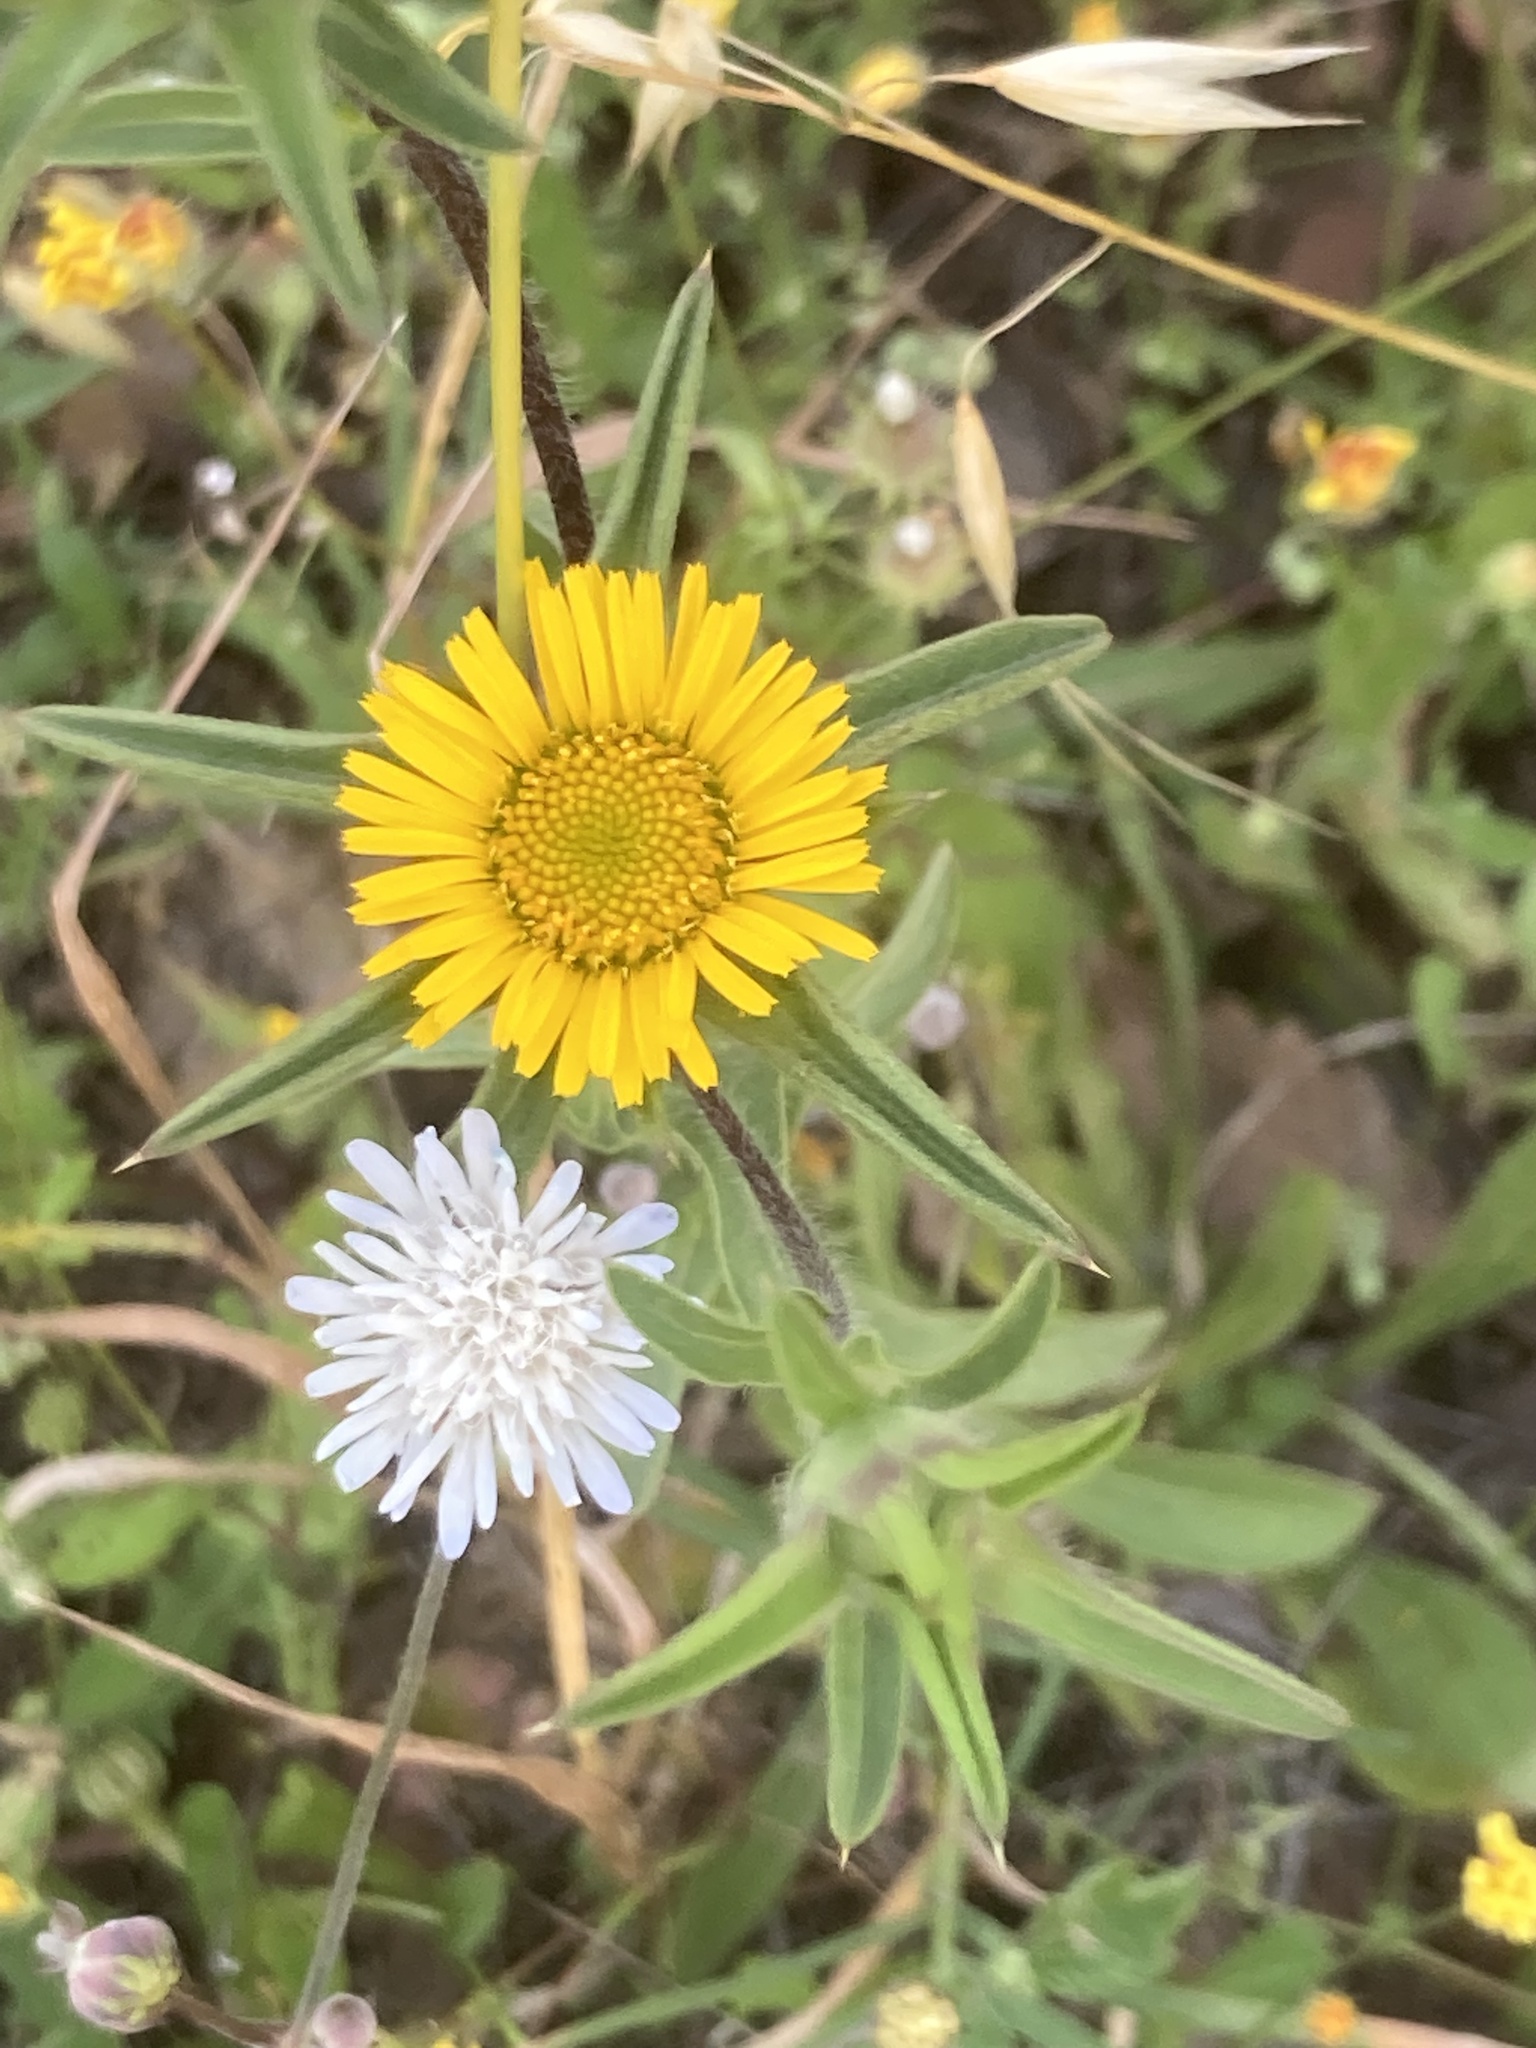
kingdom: Plantae
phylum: Tracheophyta
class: Magnoliopsida
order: Asterales
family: Asteraceae
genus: Pallenis
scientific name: Pallenis spinosa
